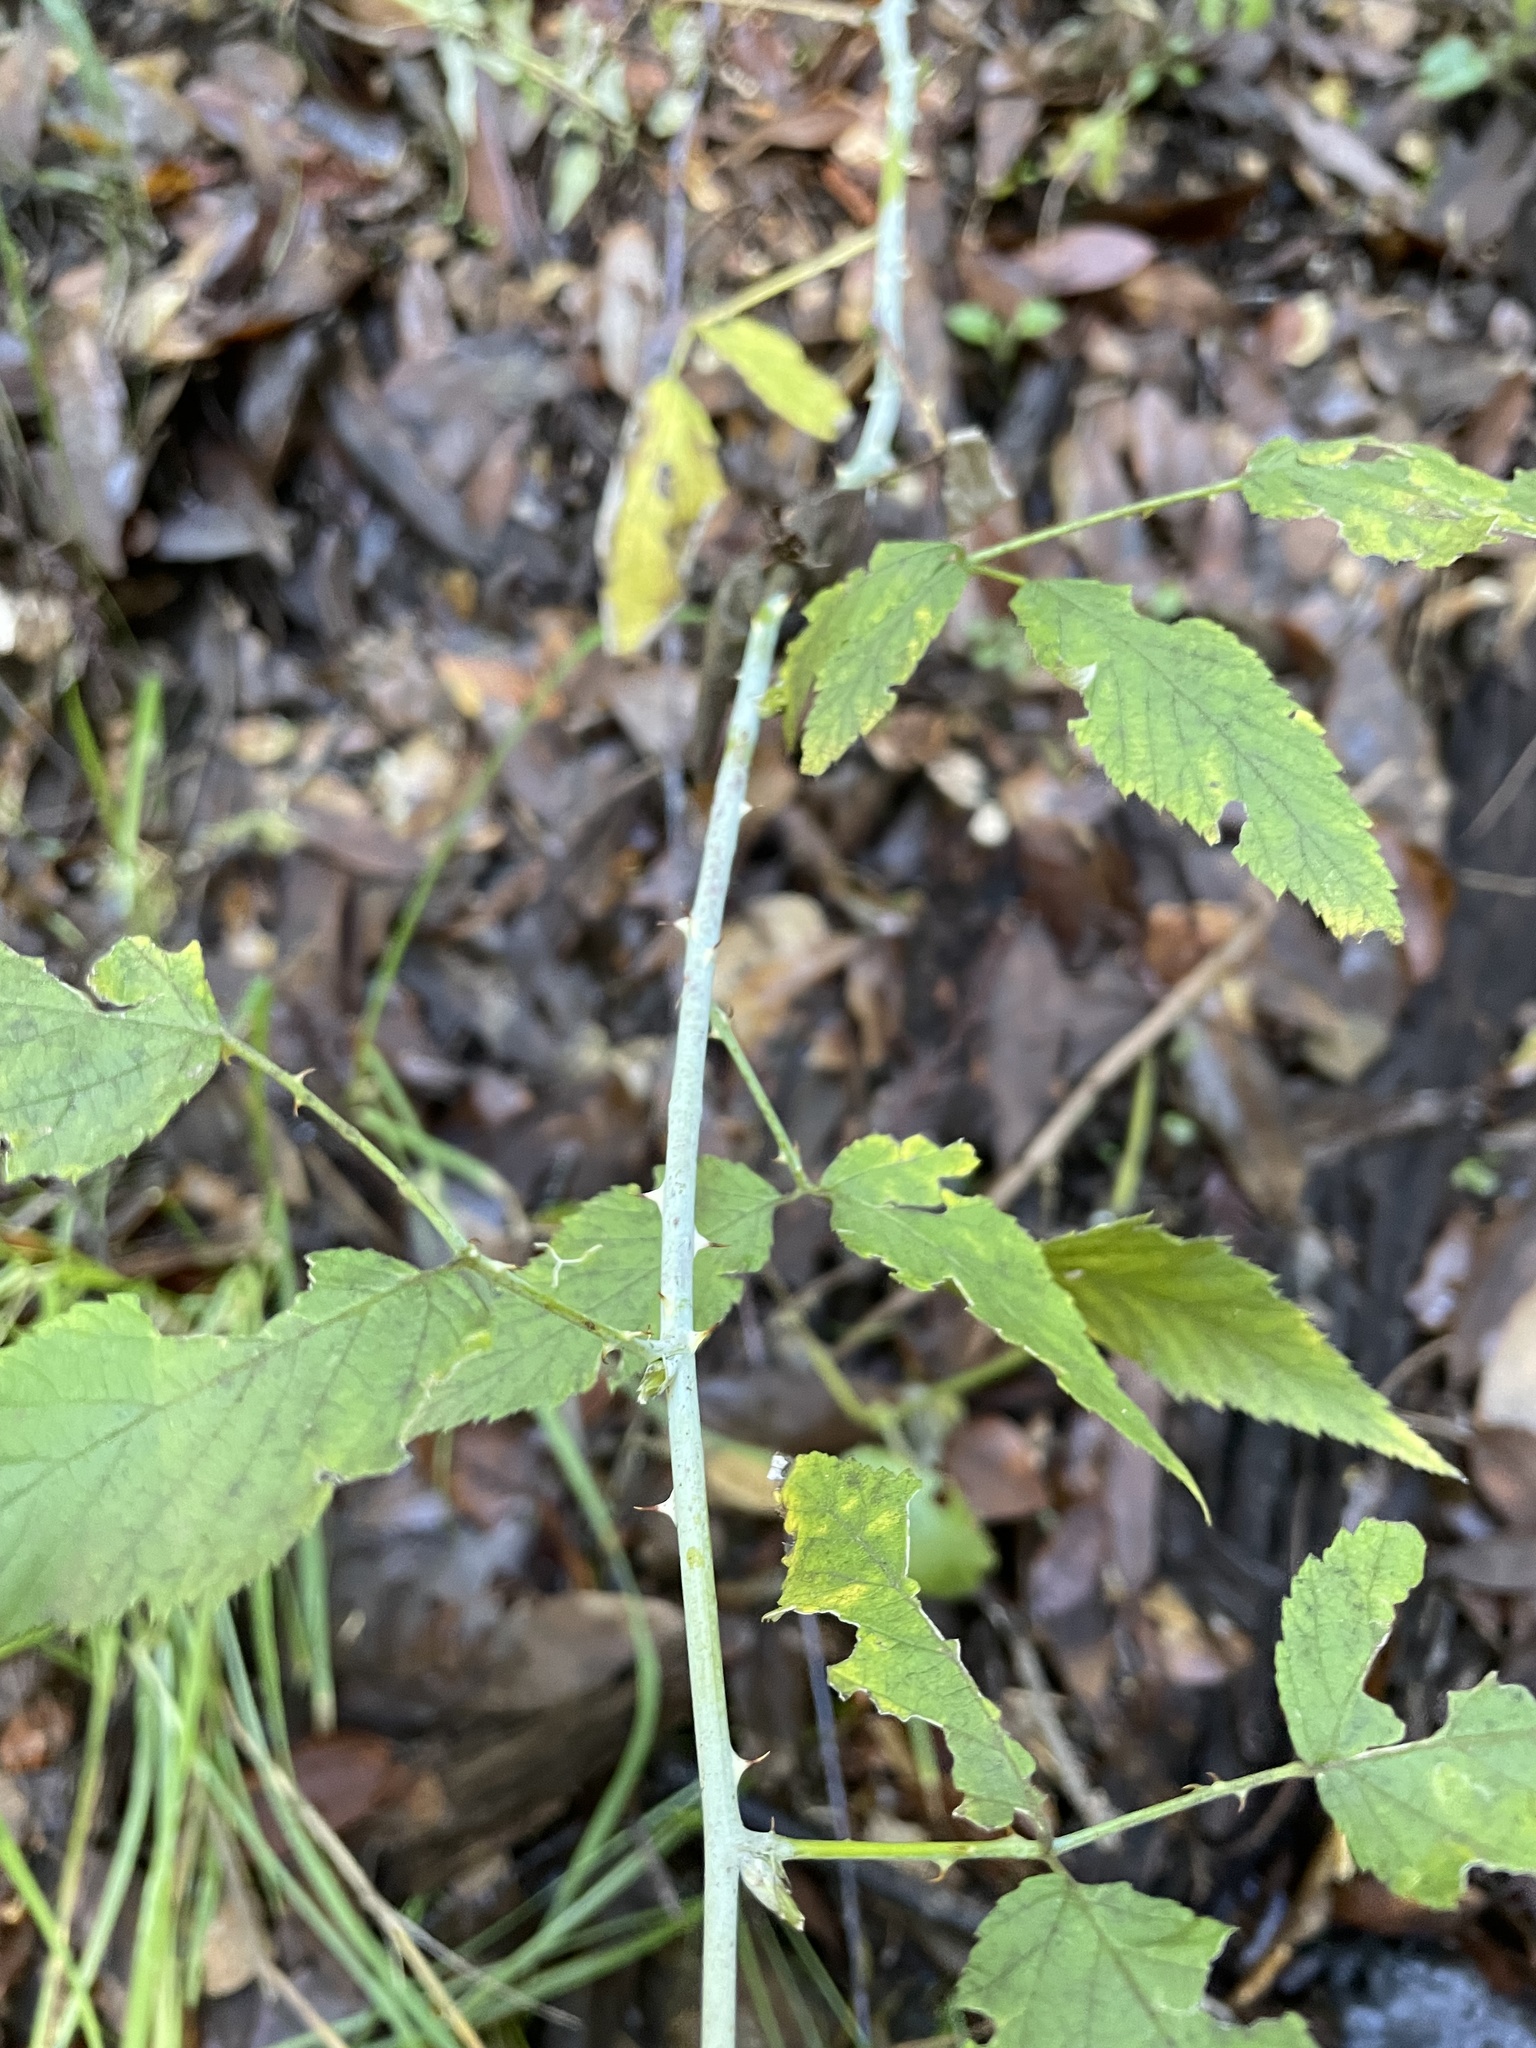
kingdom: Plantae
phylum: Tracheophyta
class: Magnoliopsida
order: Rosales
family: Rosaceae
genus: Rubus
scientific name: Rubus leucodermis
